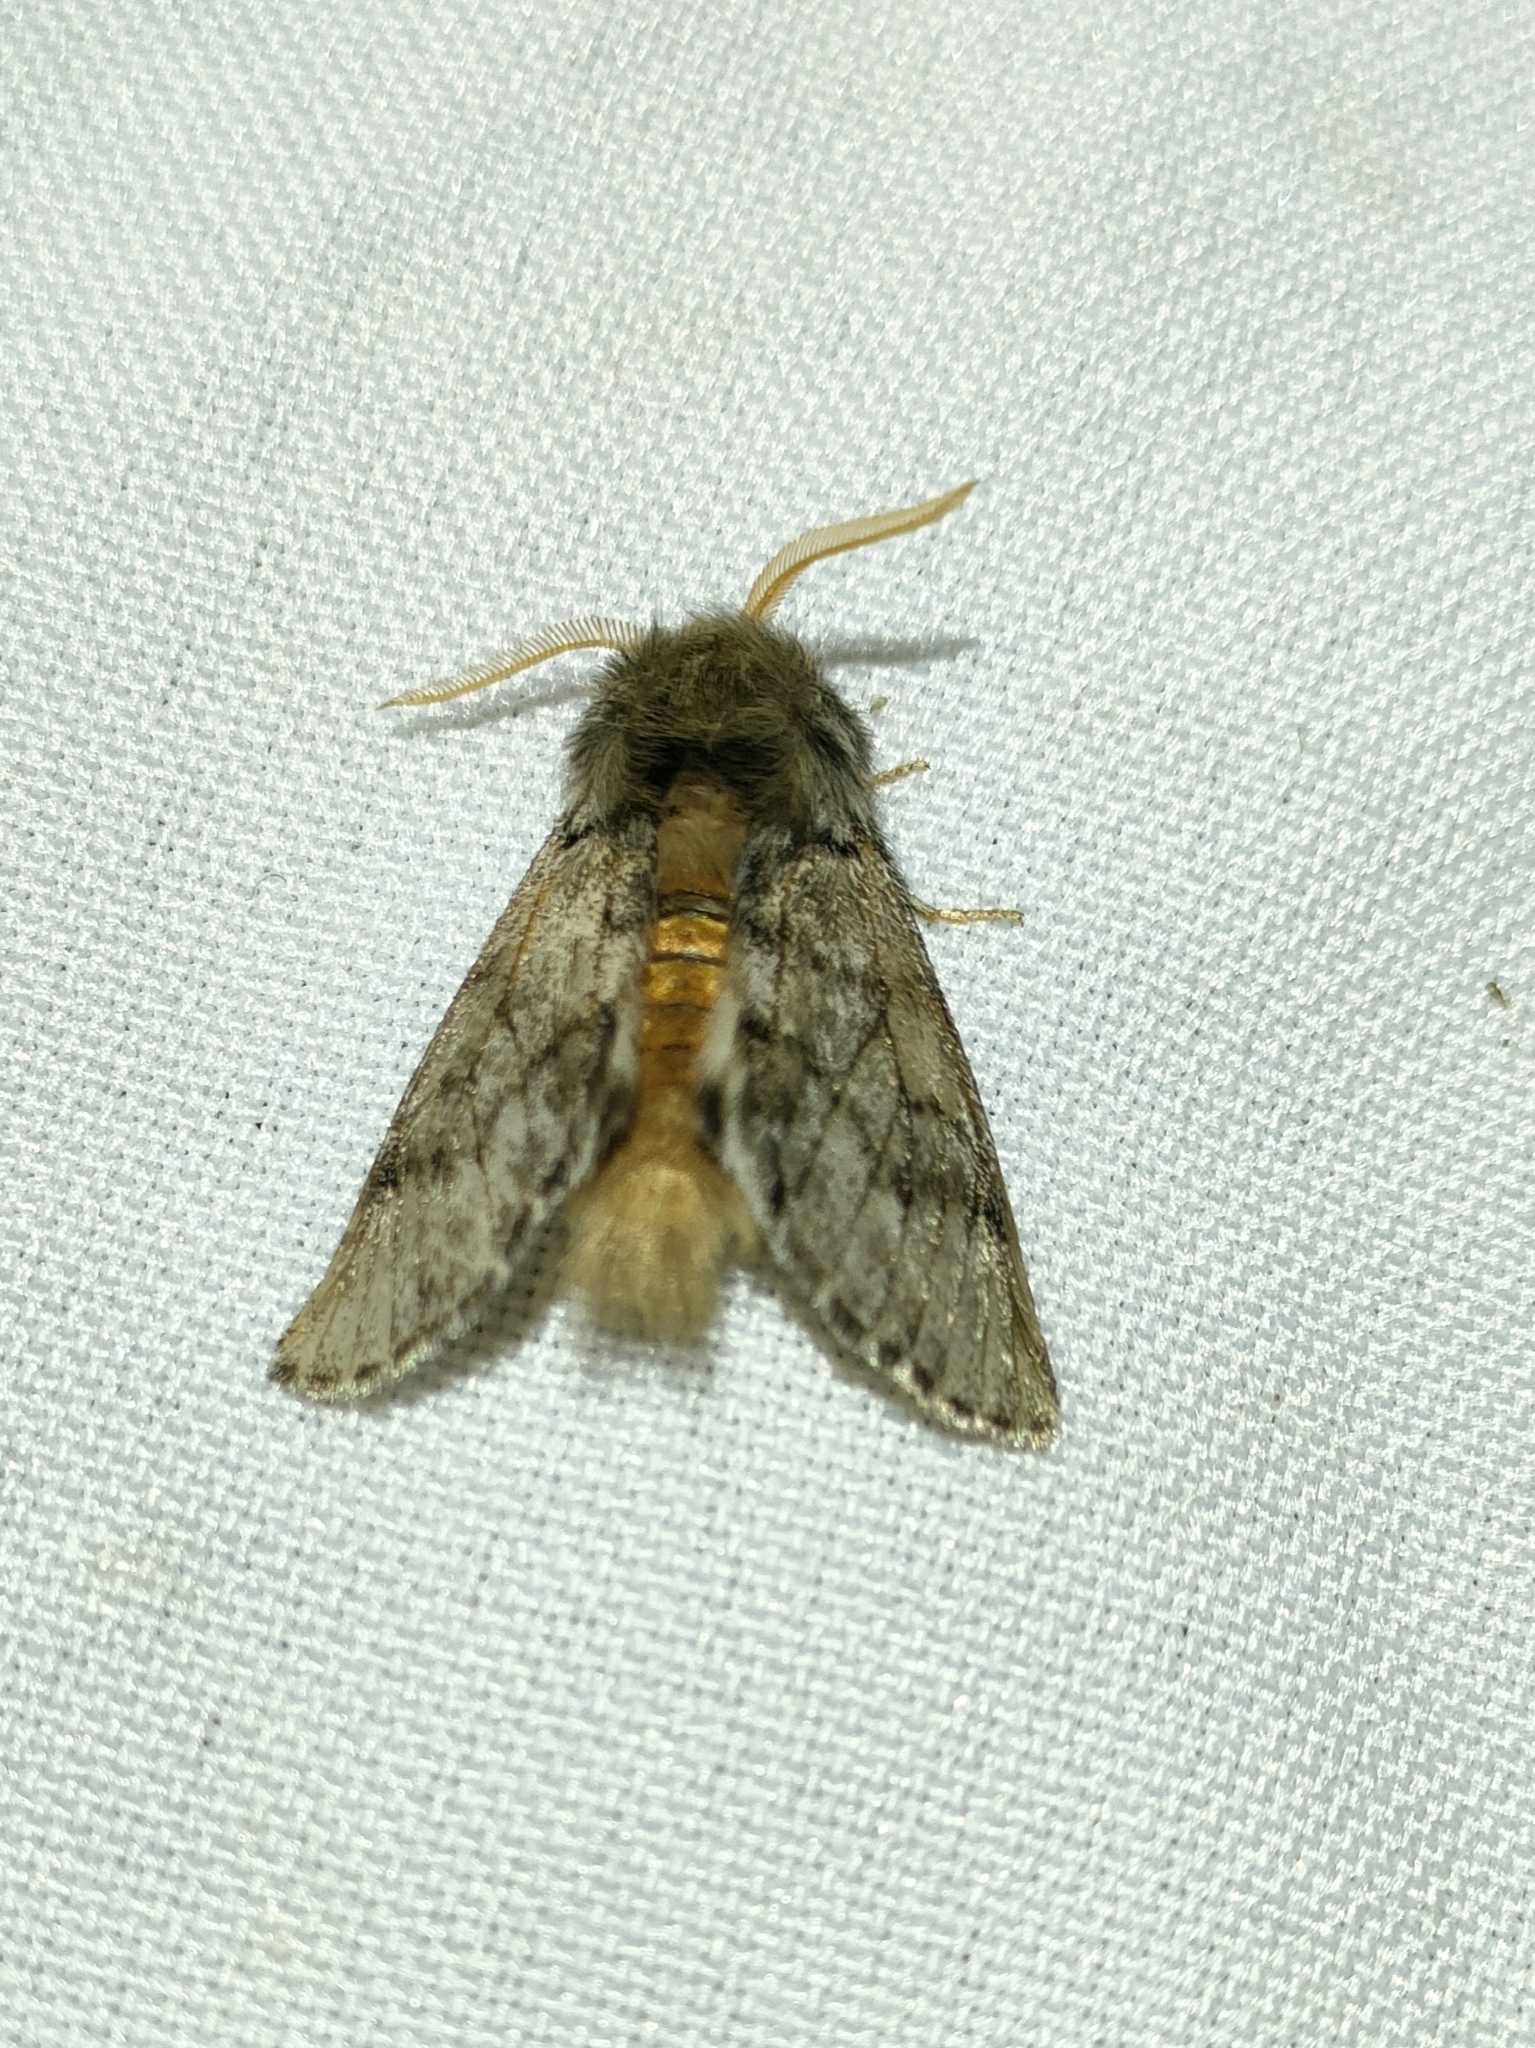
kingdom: Animalia
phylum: Arthropoda
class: Insecta
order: Lepidoptera
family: Notodontidae
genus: Thaumetopoea
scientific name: Thaumetopoea pityocampa
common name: Pine processionary
